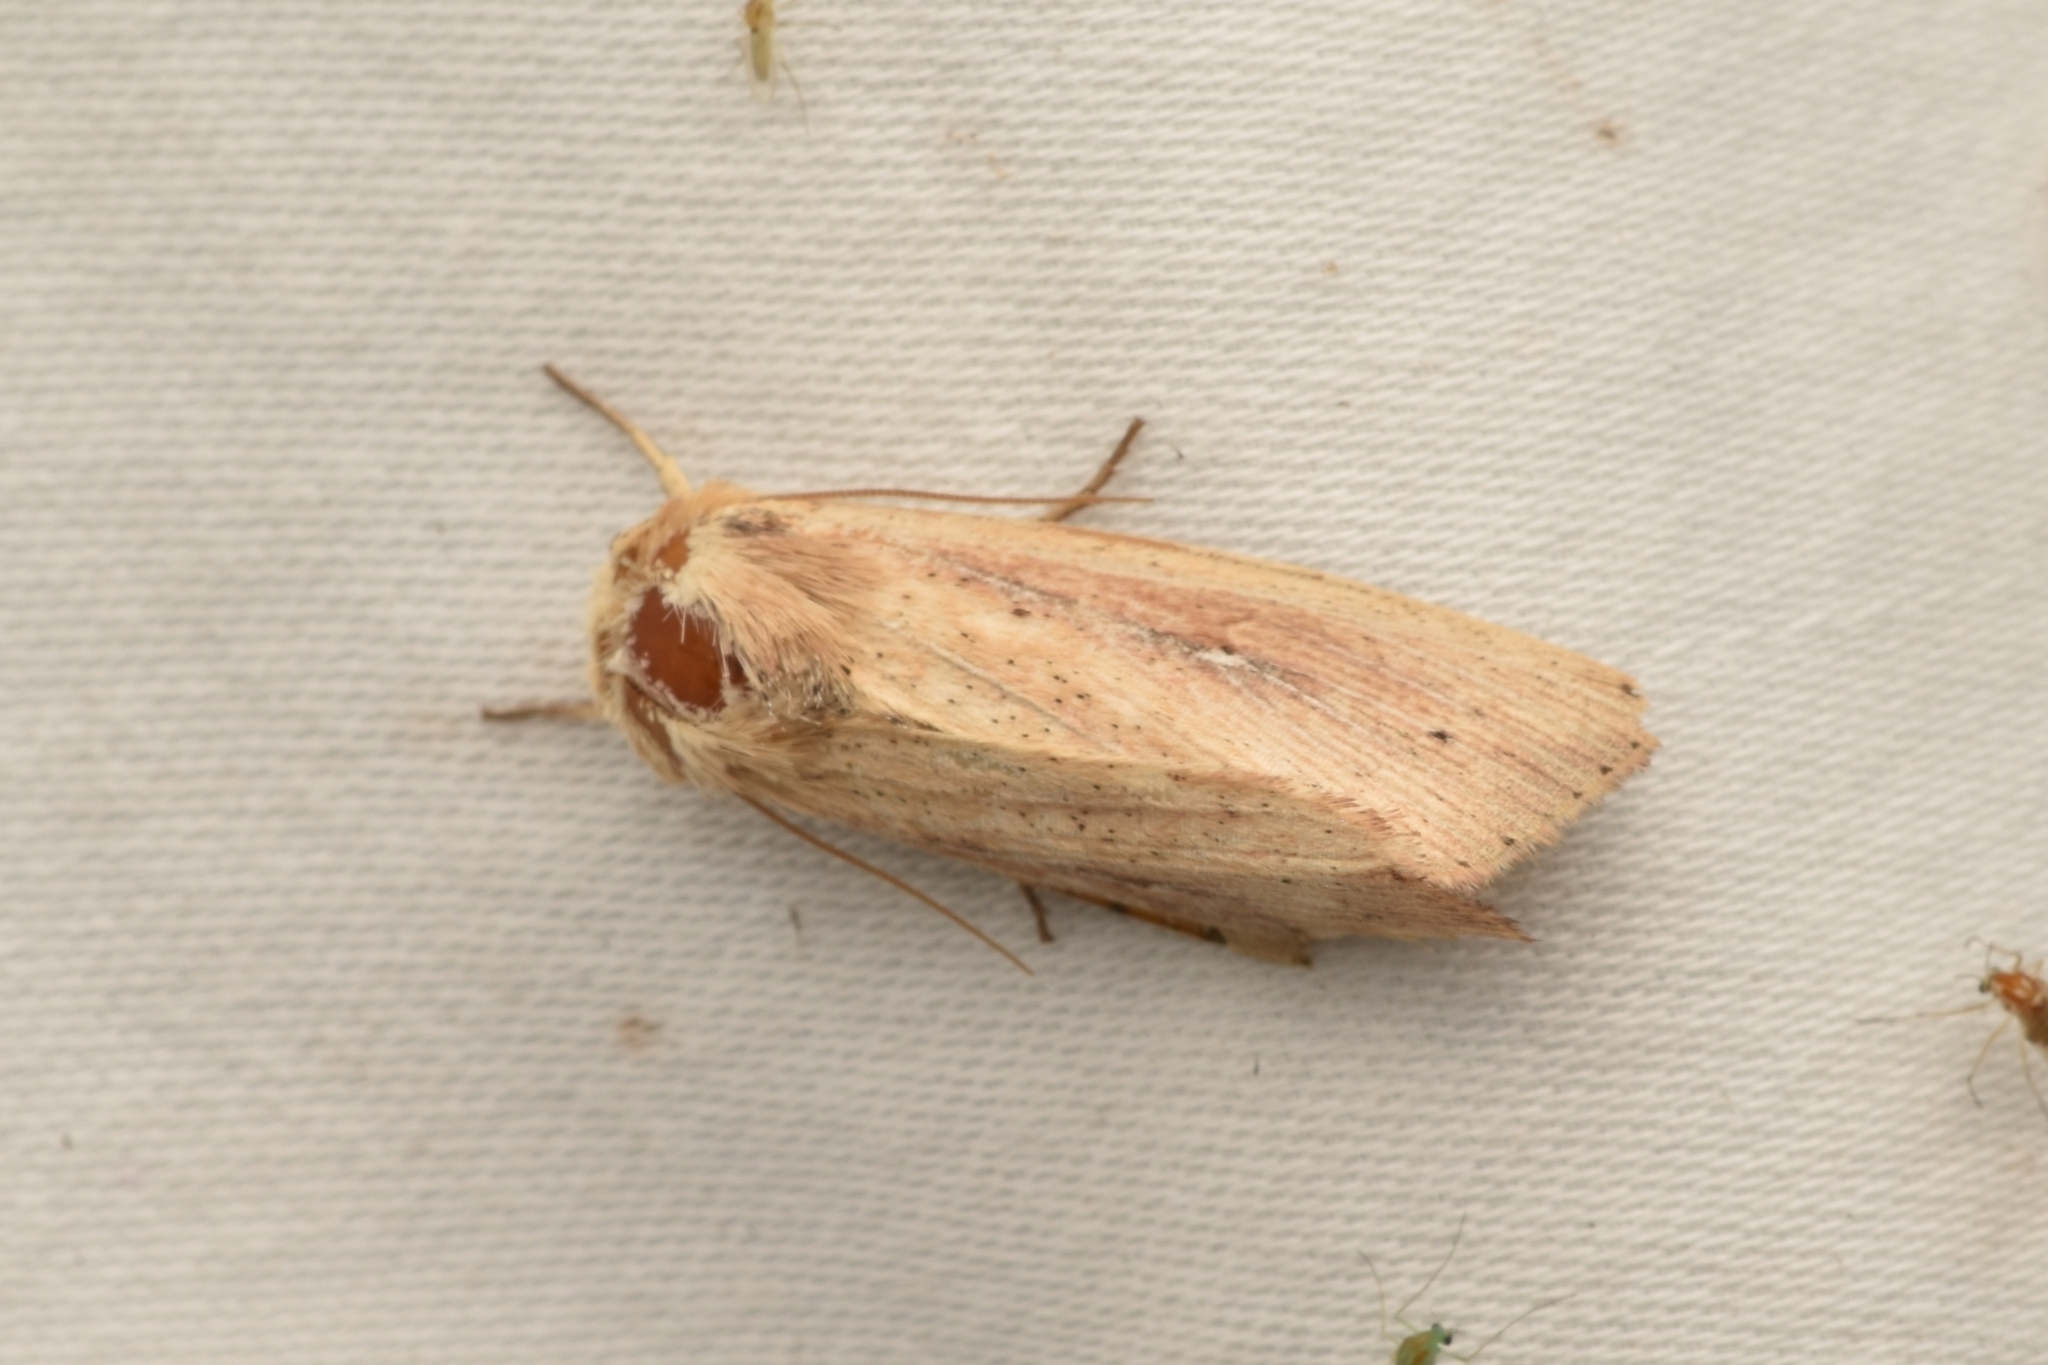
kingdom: Animalia
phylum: Arthropoda
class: Insecta
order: Lepidoptera
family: Noctuidae
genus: Leucania
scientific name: Leucania incognita
